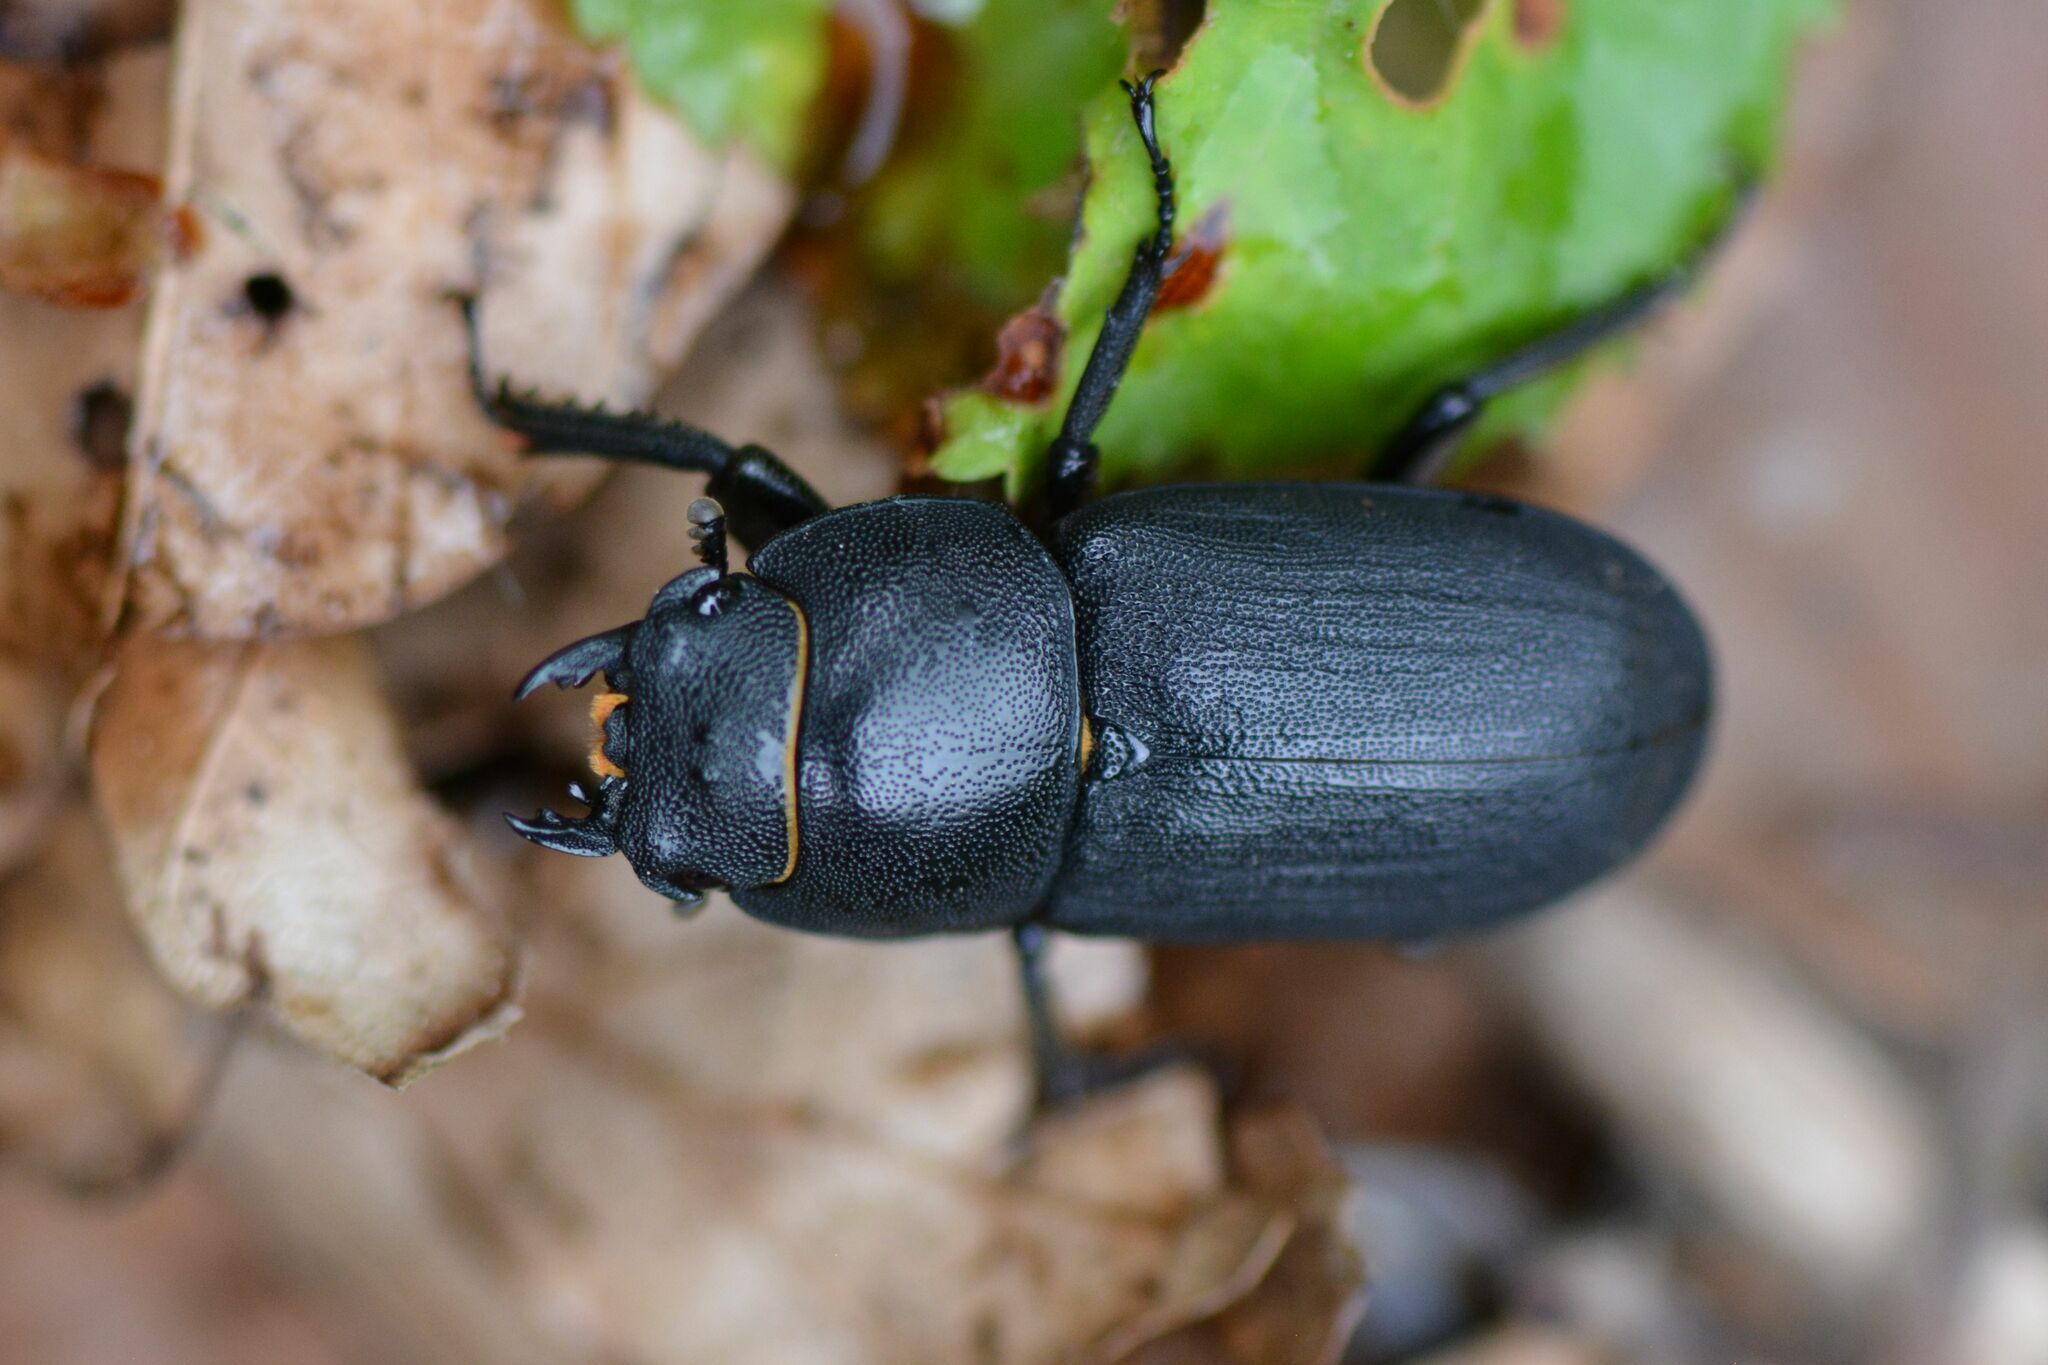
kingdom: Animalia
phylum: Arthropoda
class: Insecta
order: Coleoptera
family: Lucanidae
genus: Dorcus
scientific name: Dorcus parallelipipedus
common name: Lesser stag beetle
